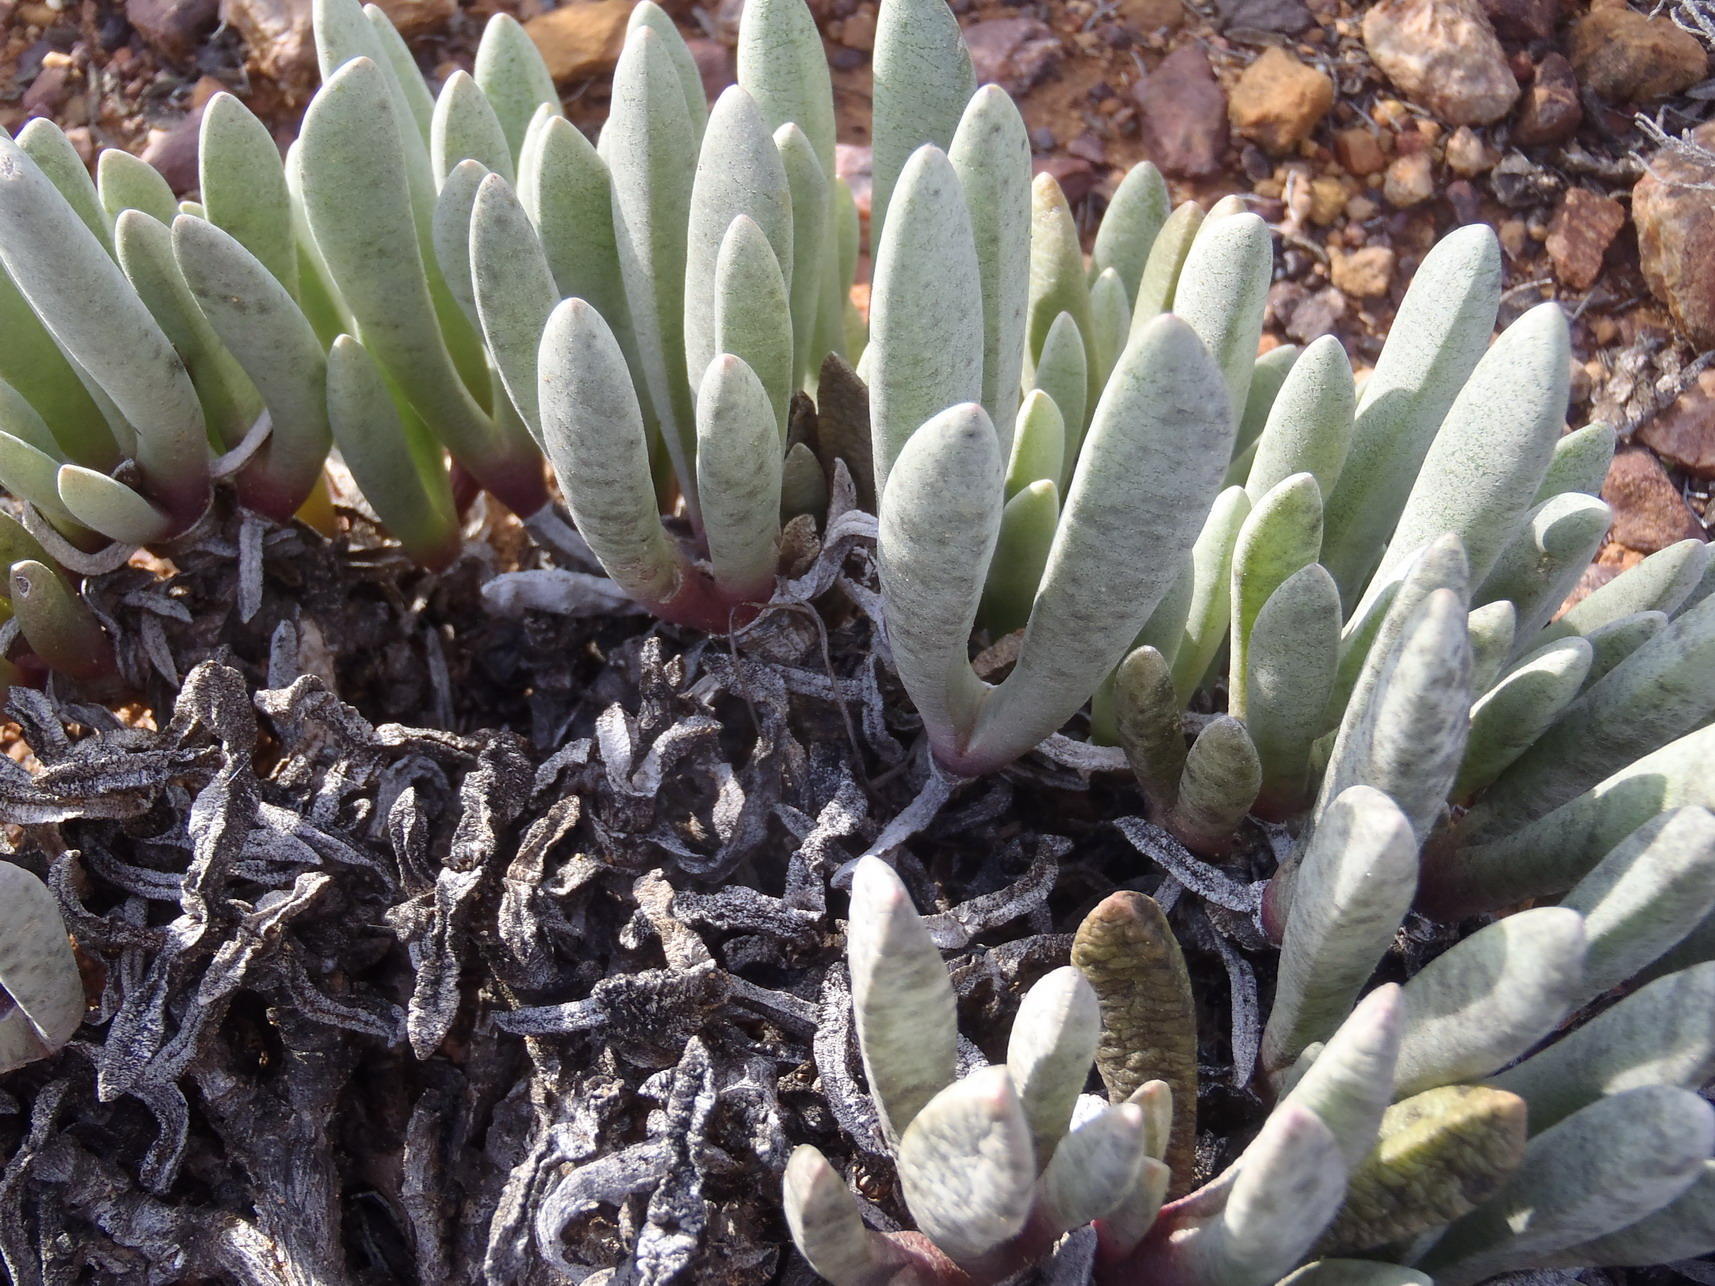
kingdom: Plantae
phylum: Tracheophyta
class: Magnoliopsida
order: Caryophyllales
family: Aizoaceae
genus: Brianhuntleya
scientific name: Brianhuntleya intrusa
